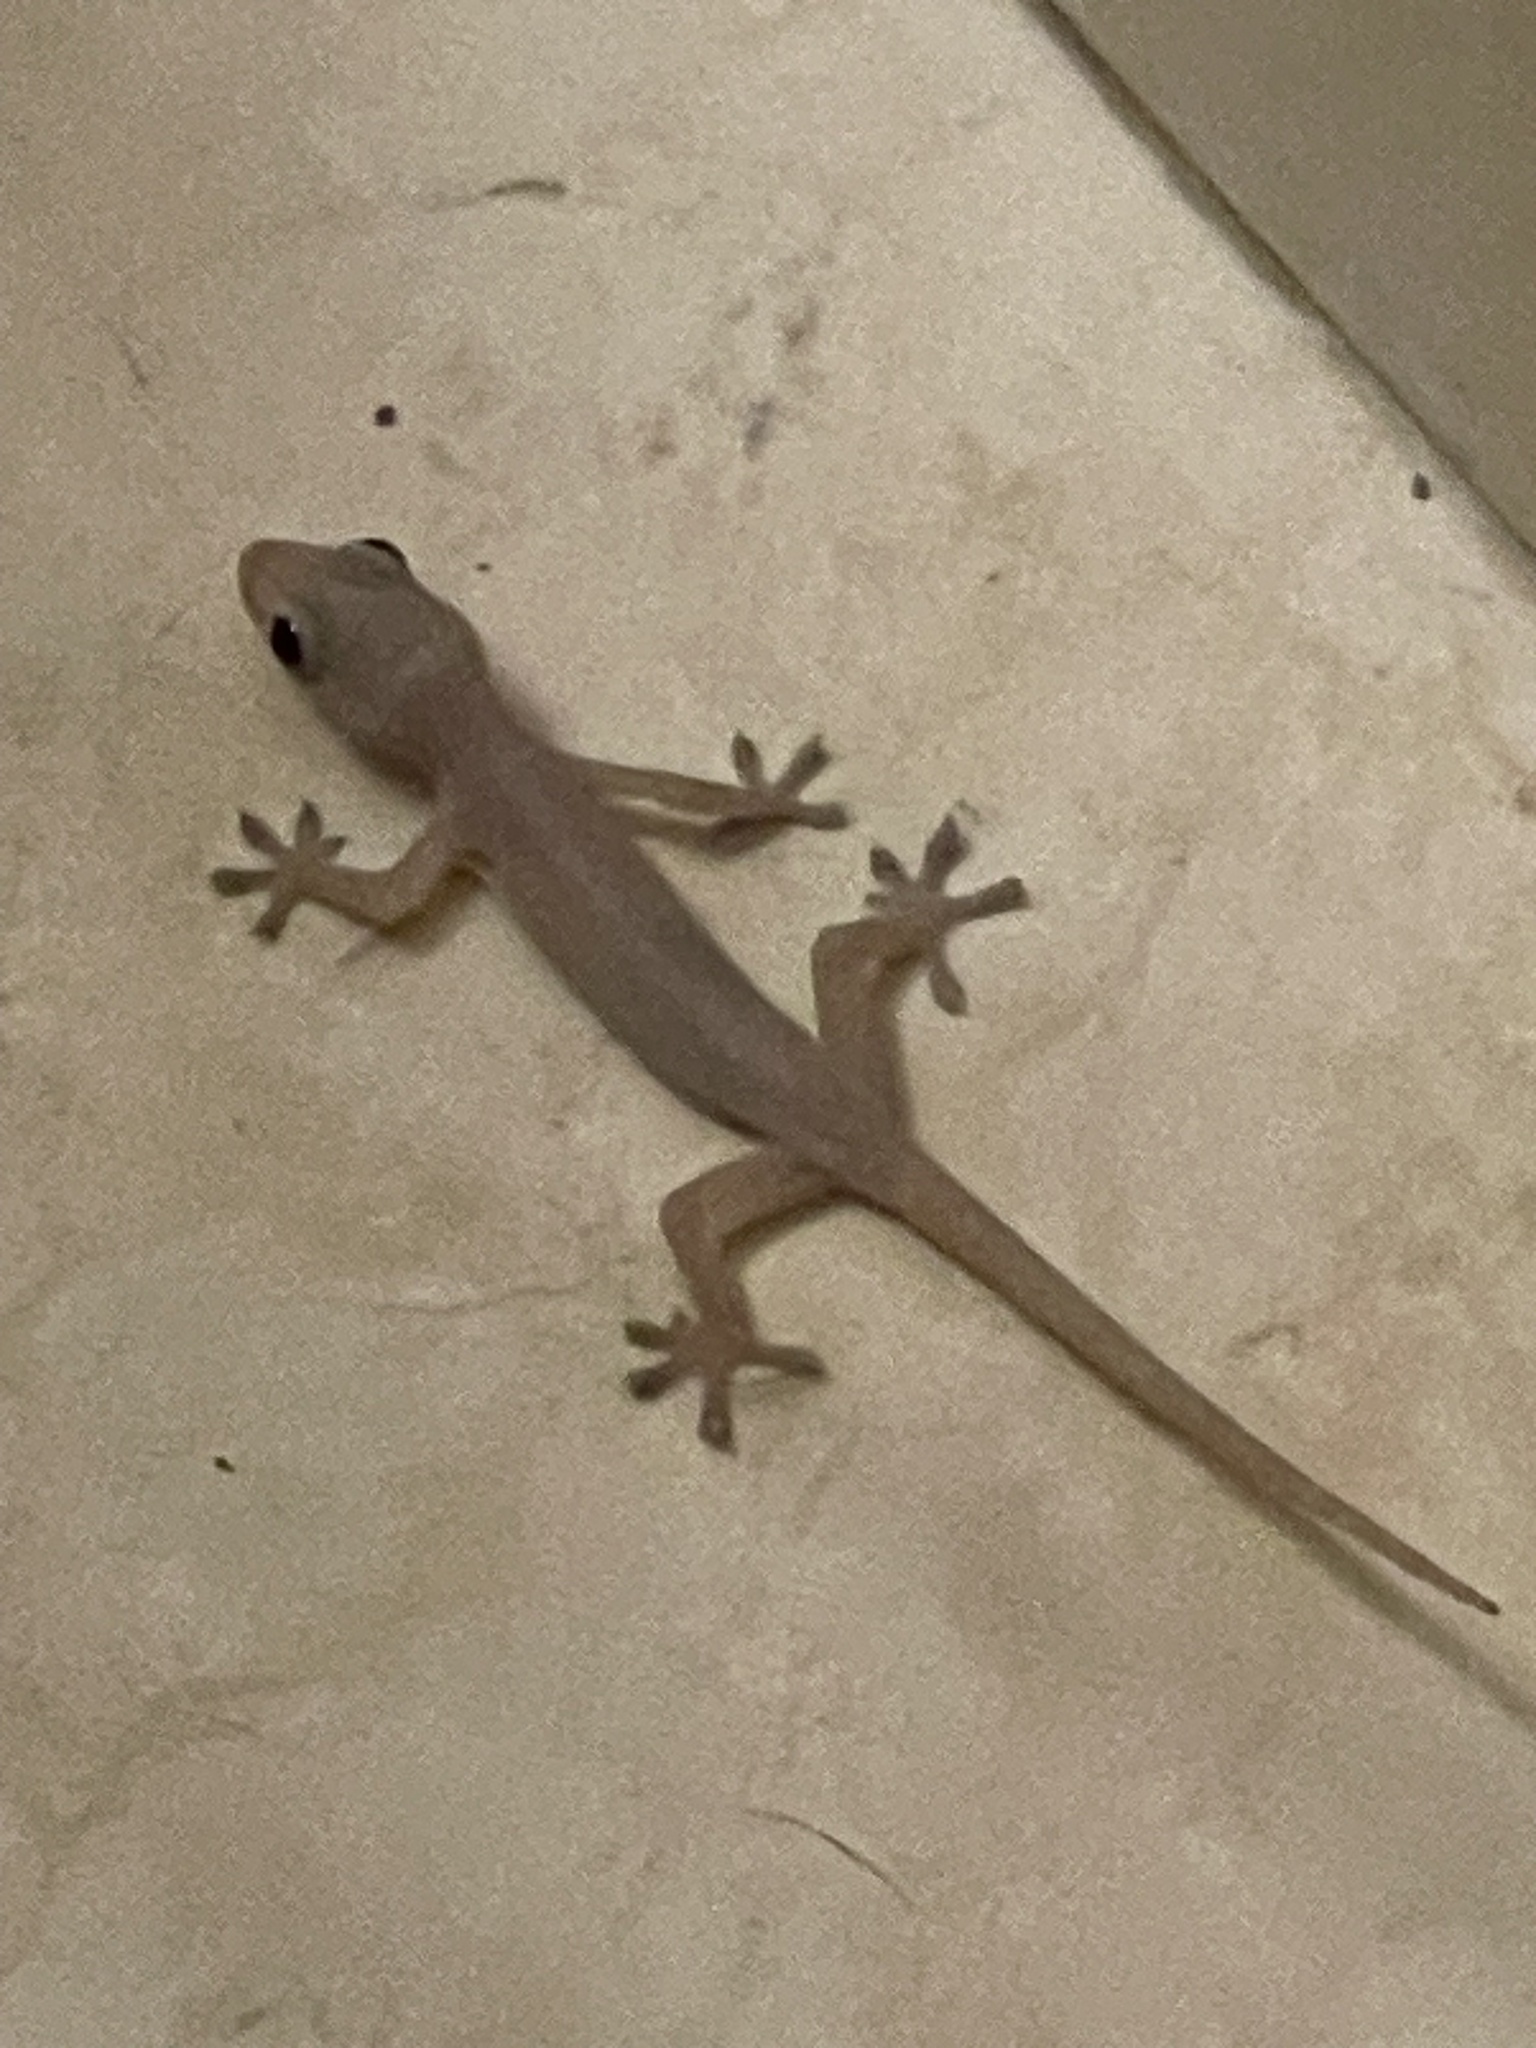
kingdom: Animalia
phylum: Chordata
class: Squamata
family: Gekkonidae
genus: Hemidactylus
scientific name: Hemidactylus frenatus
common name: Common house gecko
